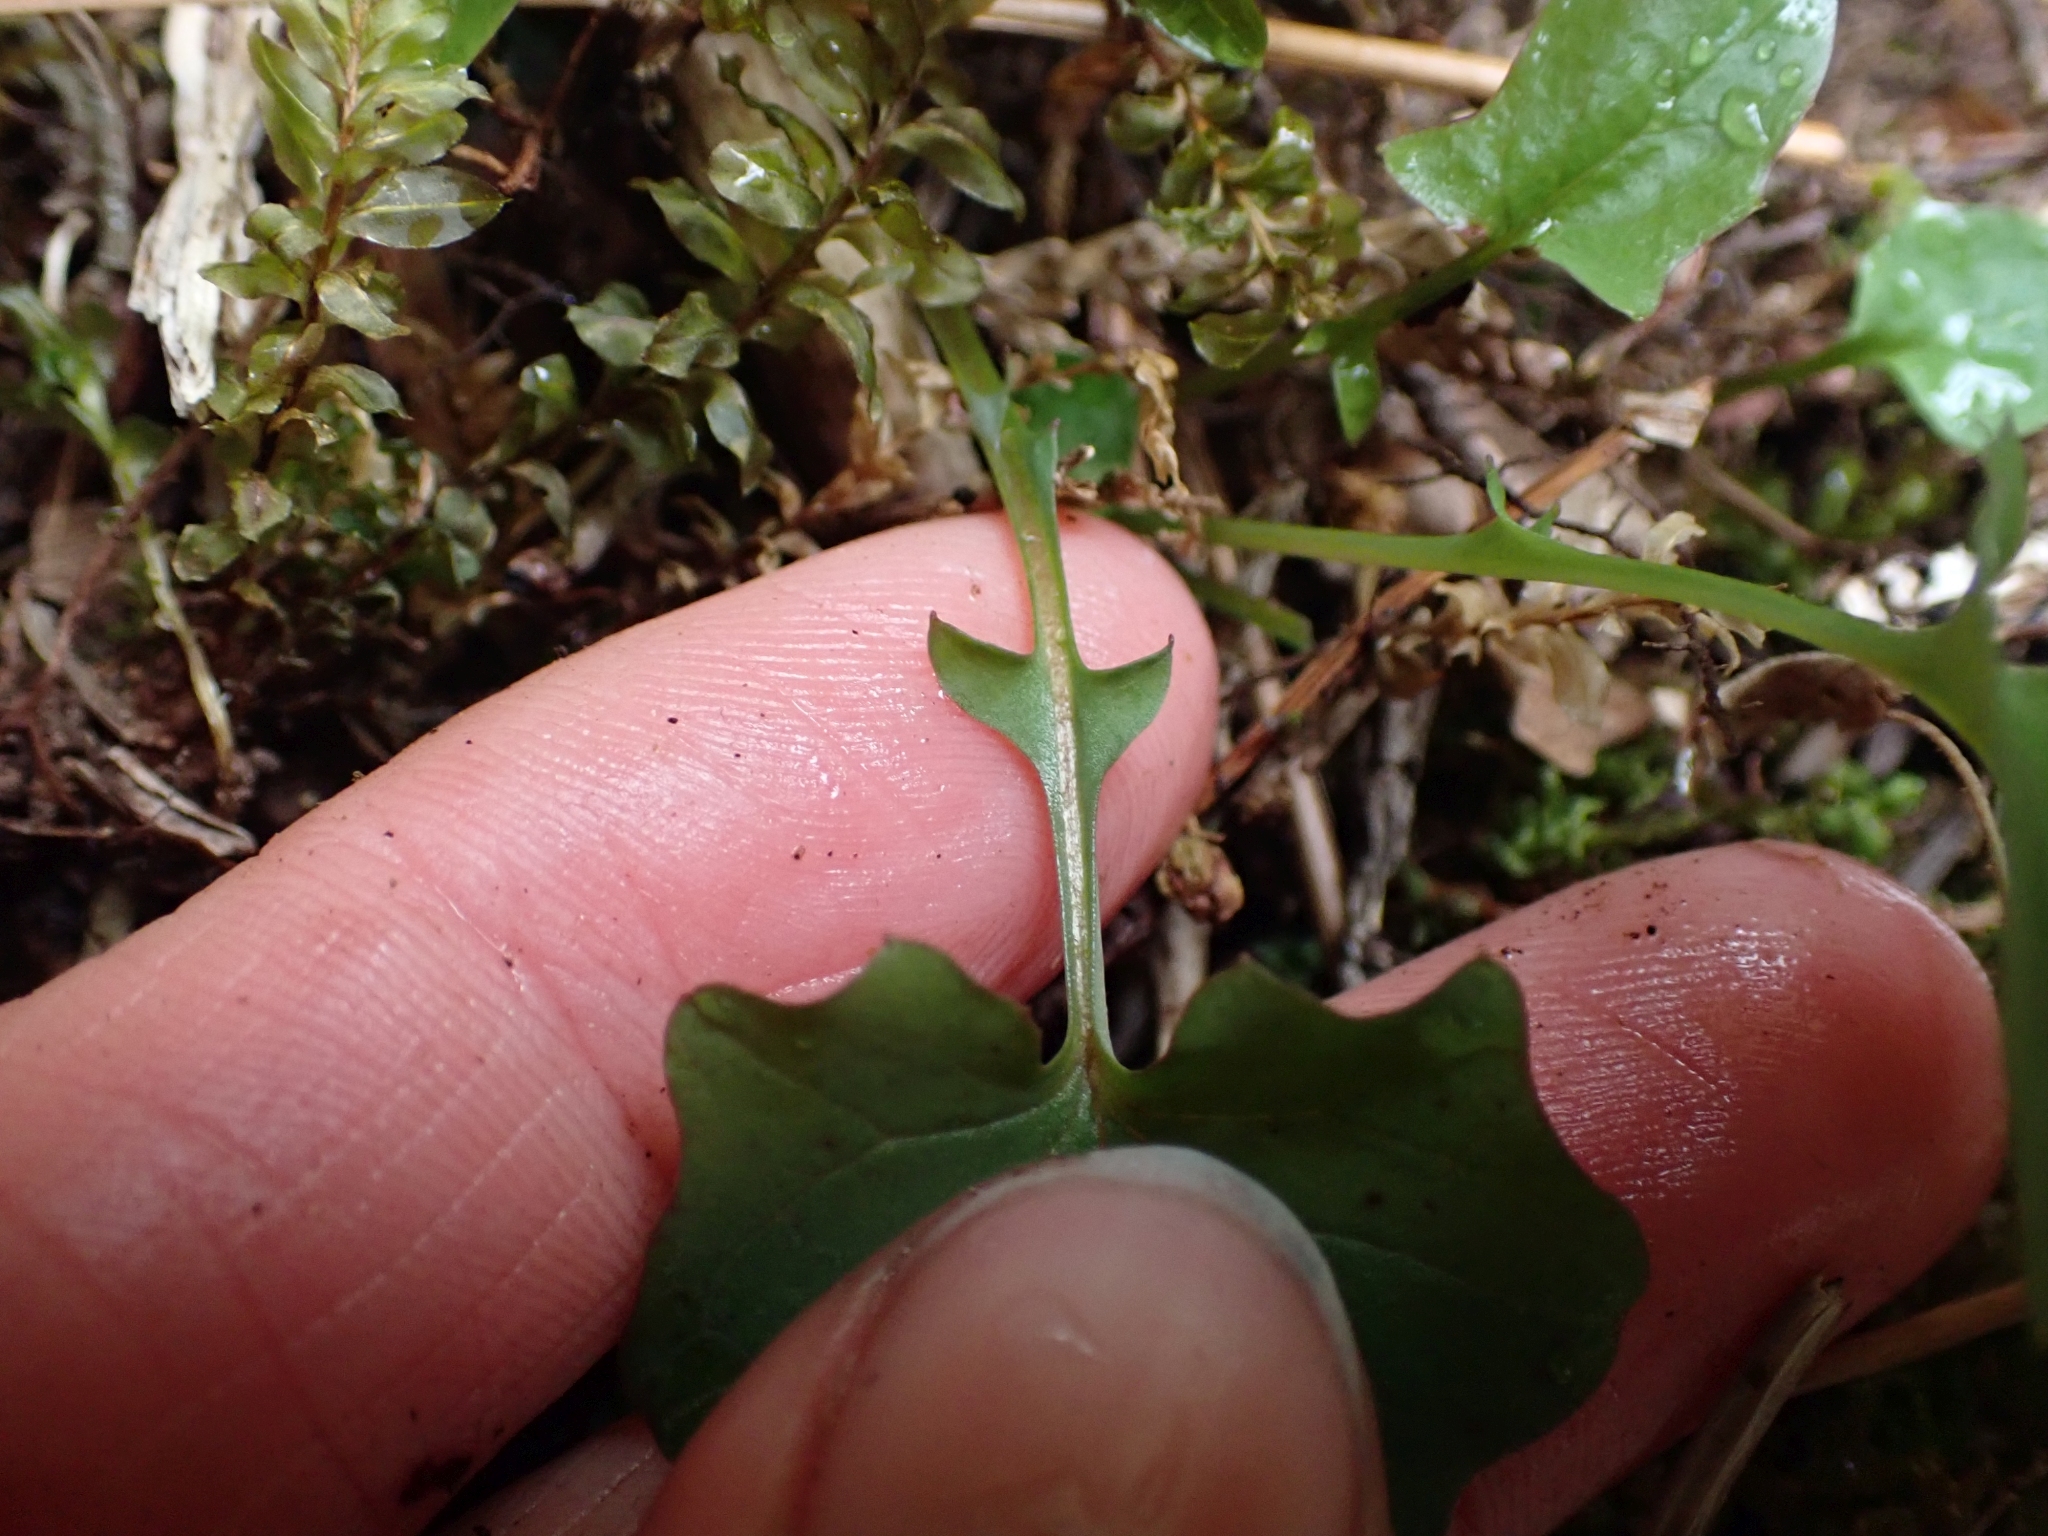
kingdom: Plantae
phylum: Tracheophyta
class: Magnoliopsida
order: Asterales
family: Asteraceae
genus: Mycelis
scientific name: Mycelis muralis
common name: Wall lettuce
